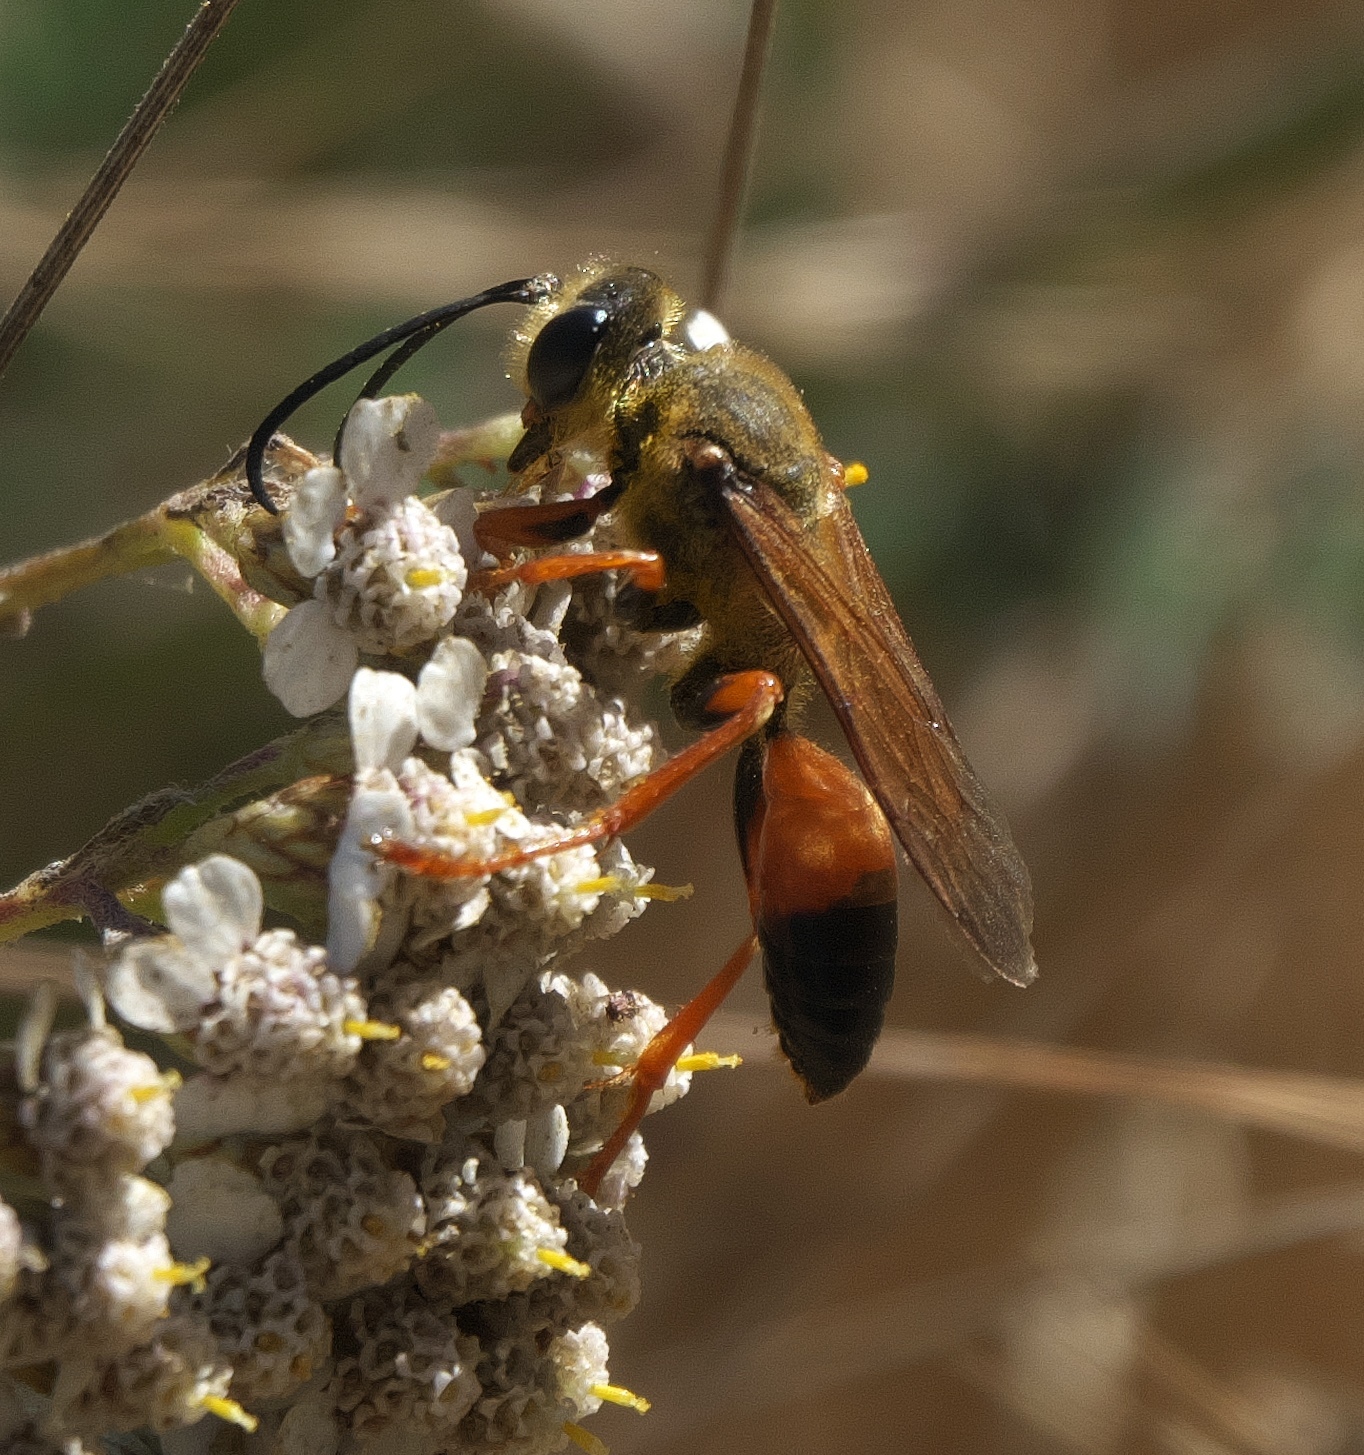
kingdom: Animalia
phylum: Arthropoda
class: Insecta
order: Hymenoptera
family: Sphecidae
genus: Sphex
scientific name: Sphex ichneumoneus
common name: Great golden digger wasp
